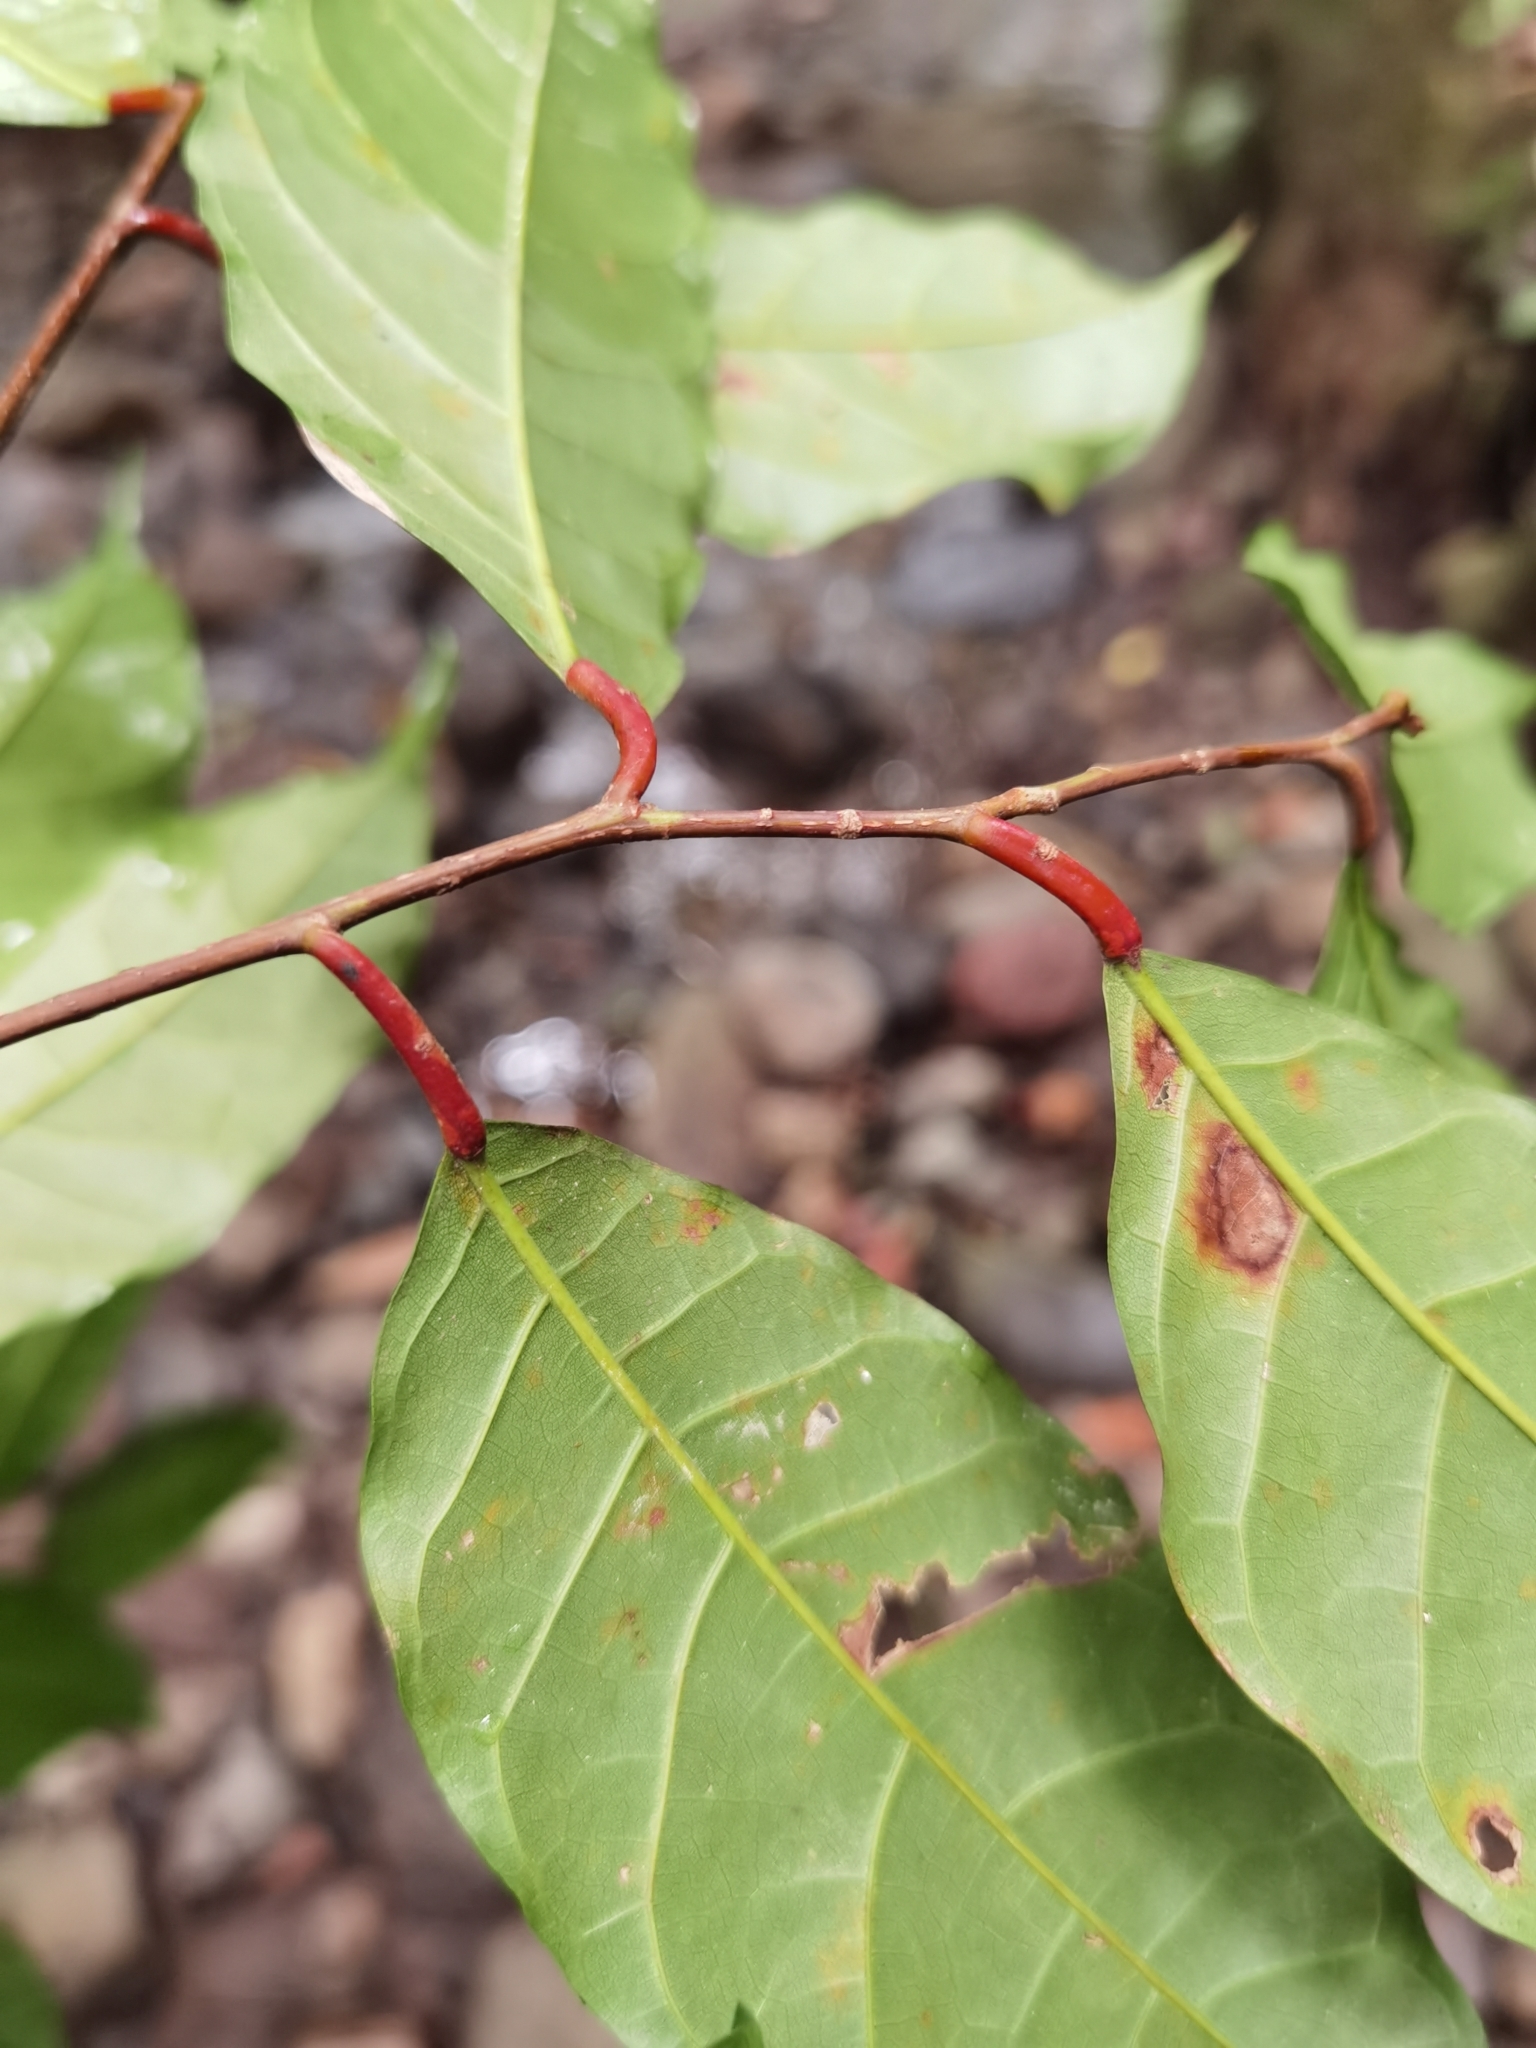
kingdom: Plantae
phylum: Tracheophyta
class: Magnoliopsida
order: Rosales
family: Moraceae
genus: Clarisia
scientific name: Clarisia biflora
